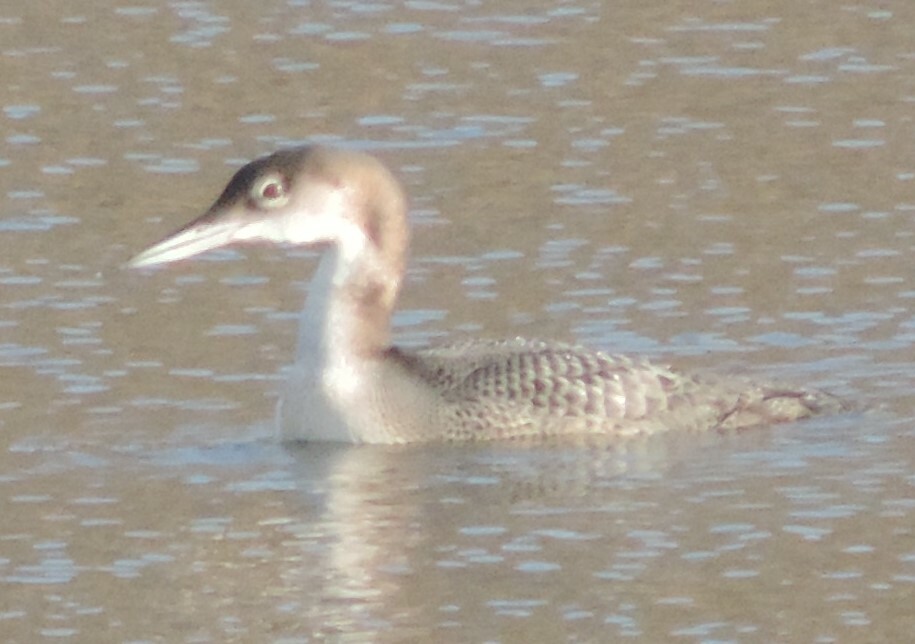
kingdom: Animalia
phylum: Chordata
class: Aves
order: Gaviiformes
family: Gaviidae
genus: Gavia
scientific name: Gavia immer
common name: Common loon
